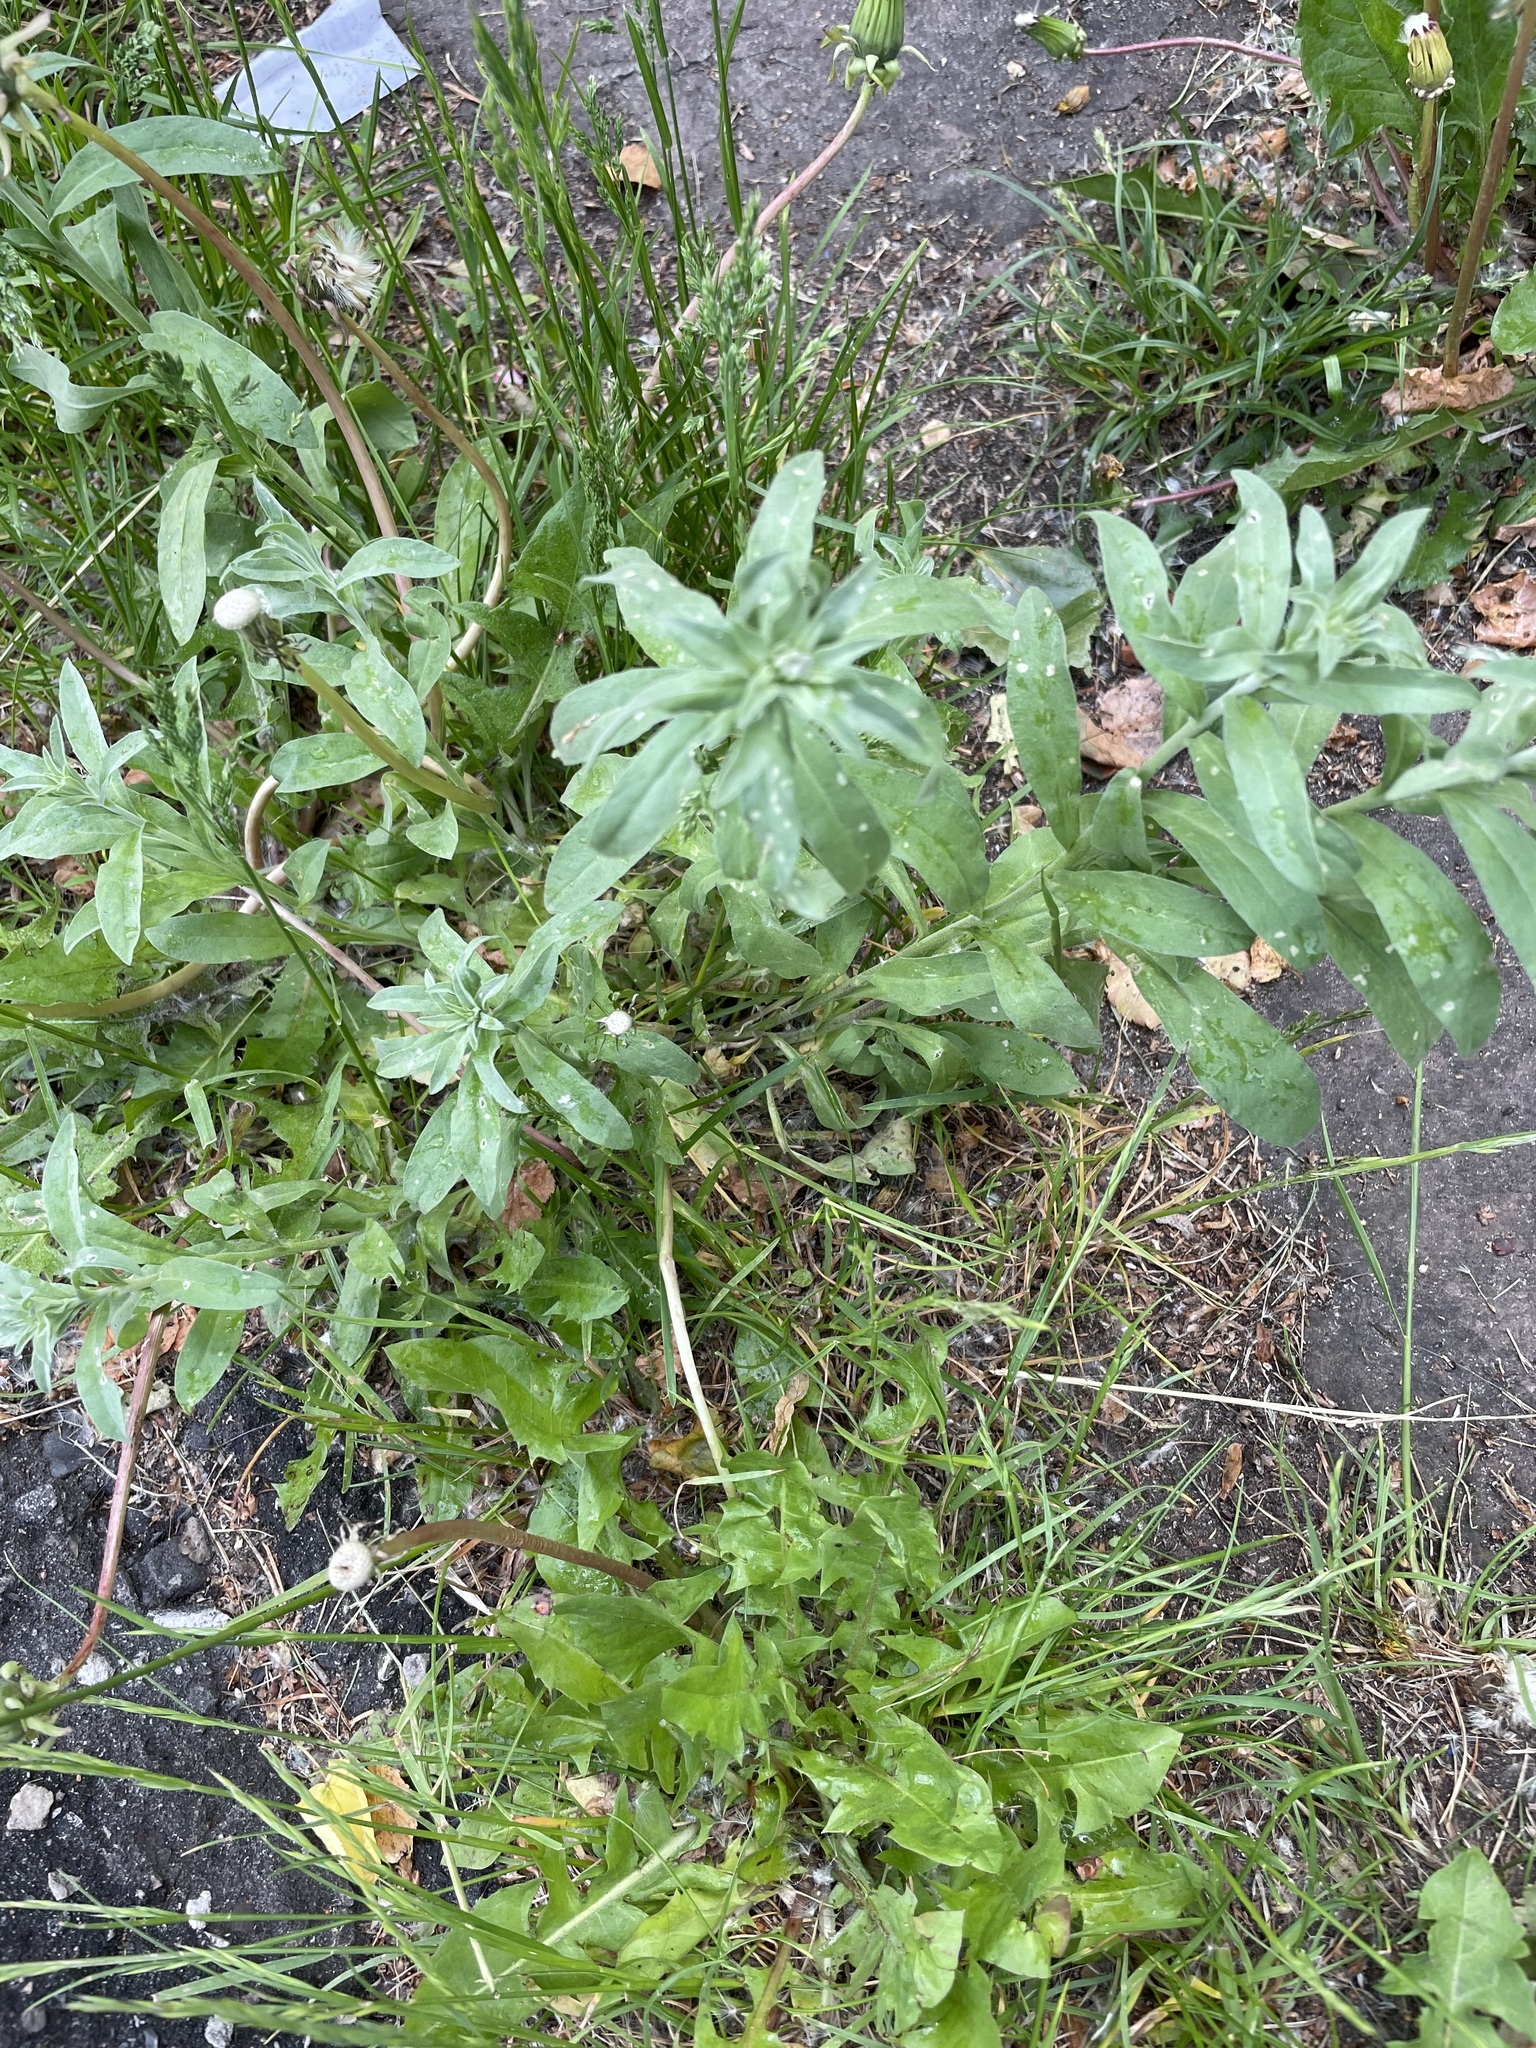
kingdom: Plantae
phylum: Tracheophyta
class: Magnoliopsida
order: Brassicales
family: Brassicaceae
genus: Berteroa
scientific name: Berteroa incana
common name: Hoary alison
